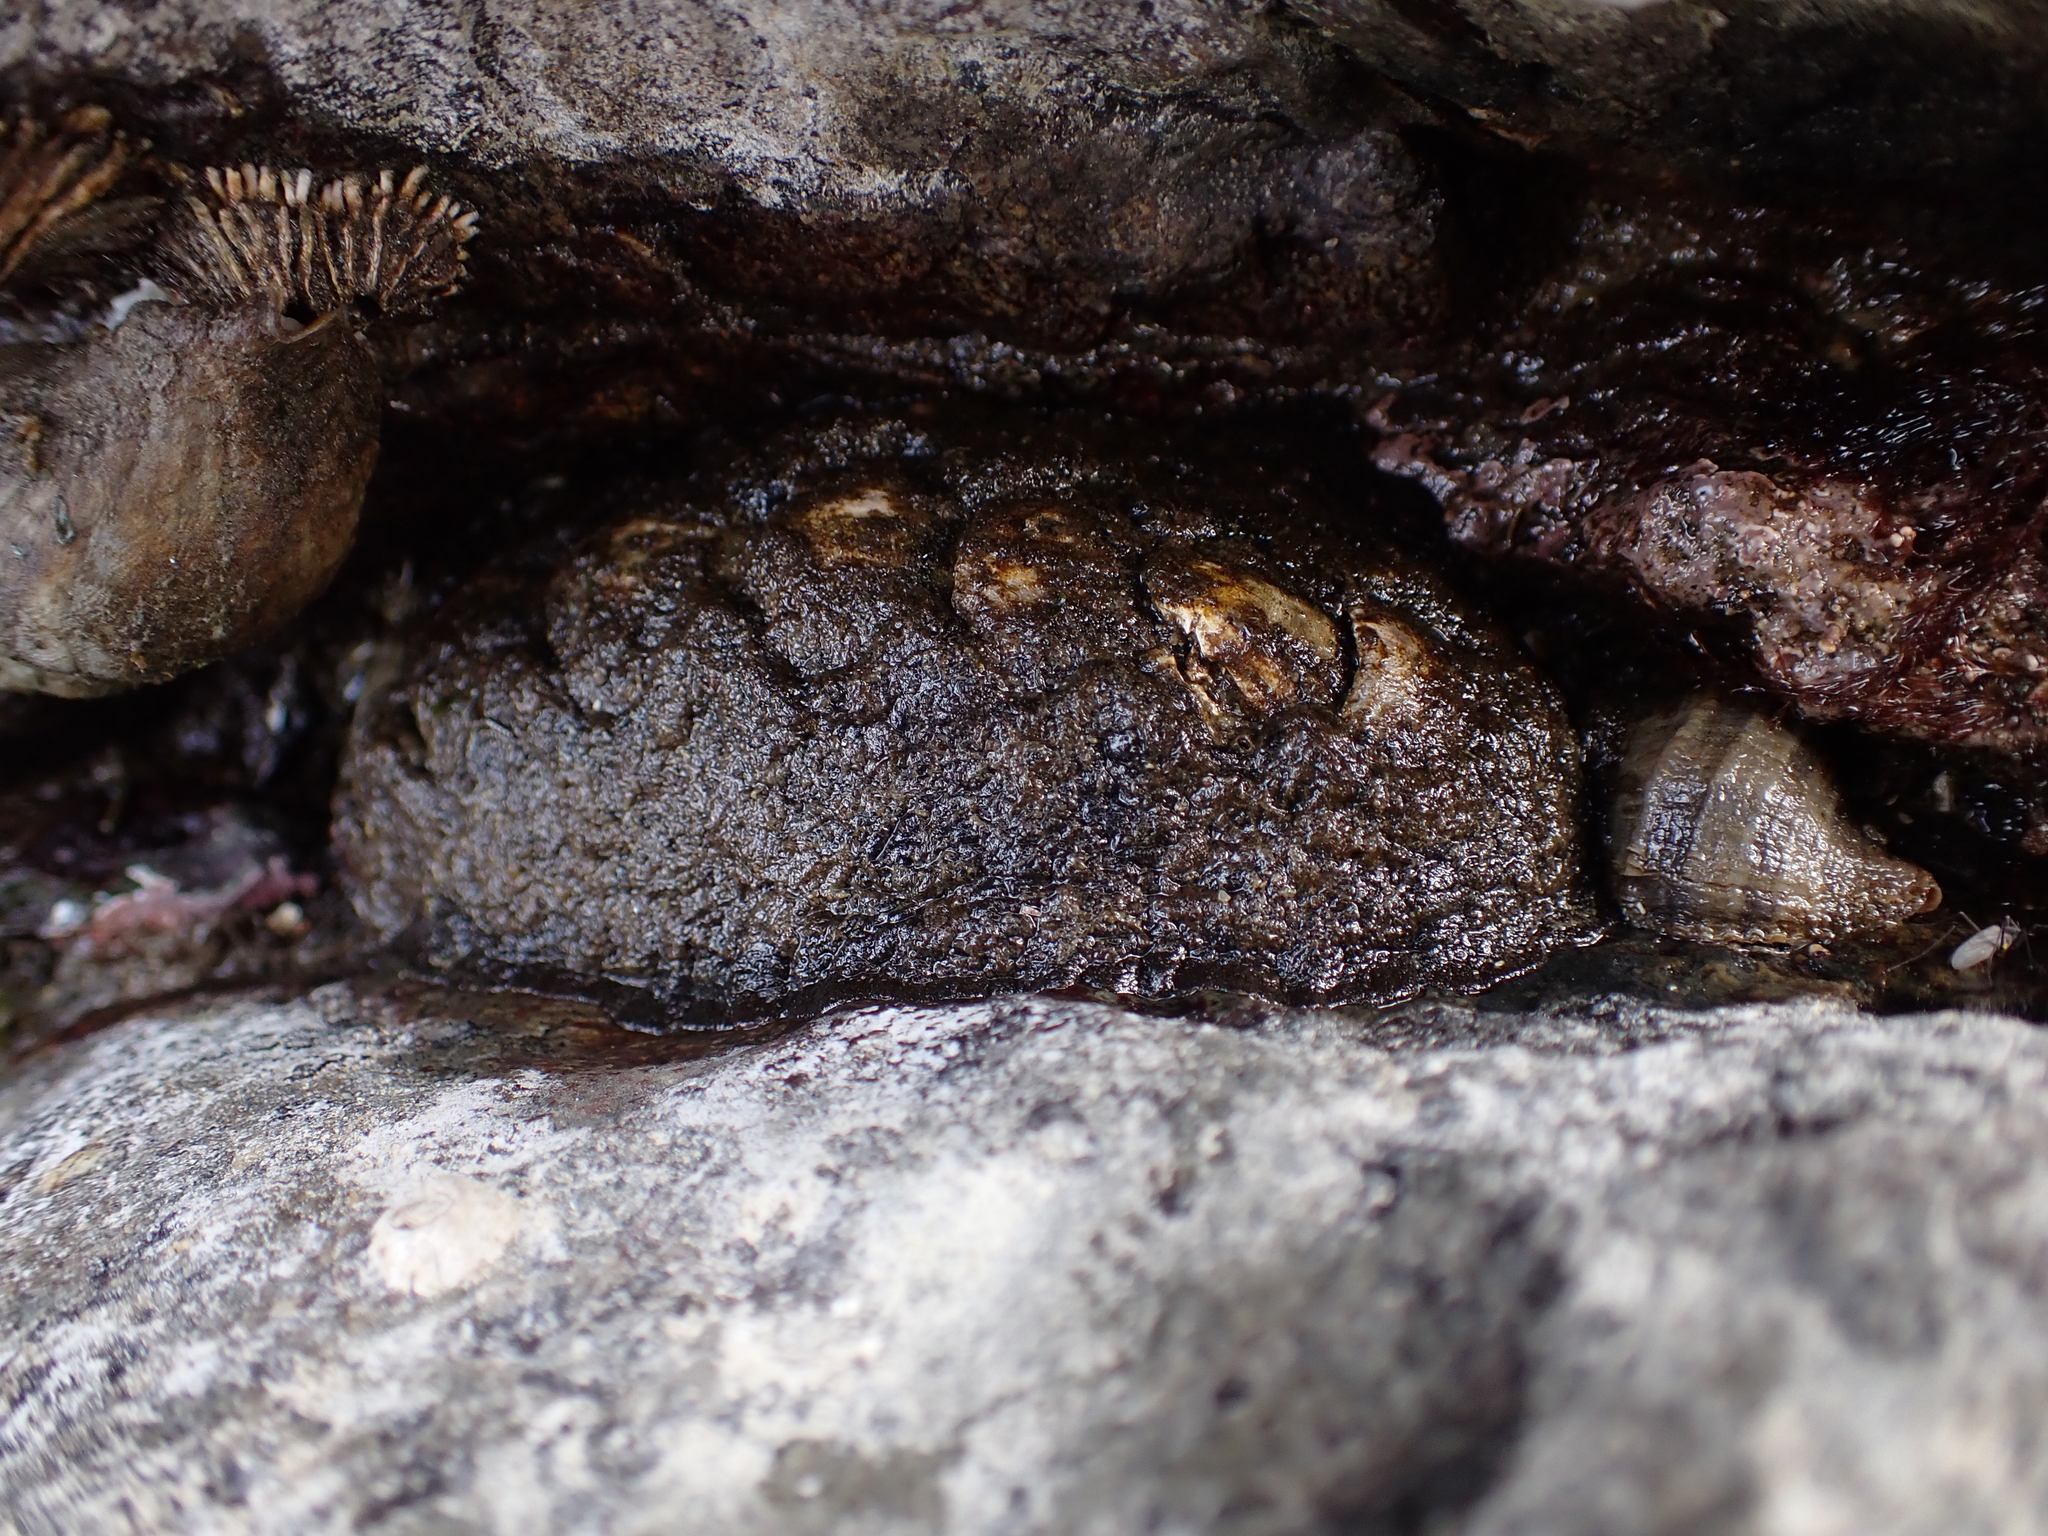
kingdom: Animalia
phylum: Mollusca
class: Polyplacophora
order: Chitonida
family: Mopaliidae
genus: Katharina
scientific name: Katharina tunicata
